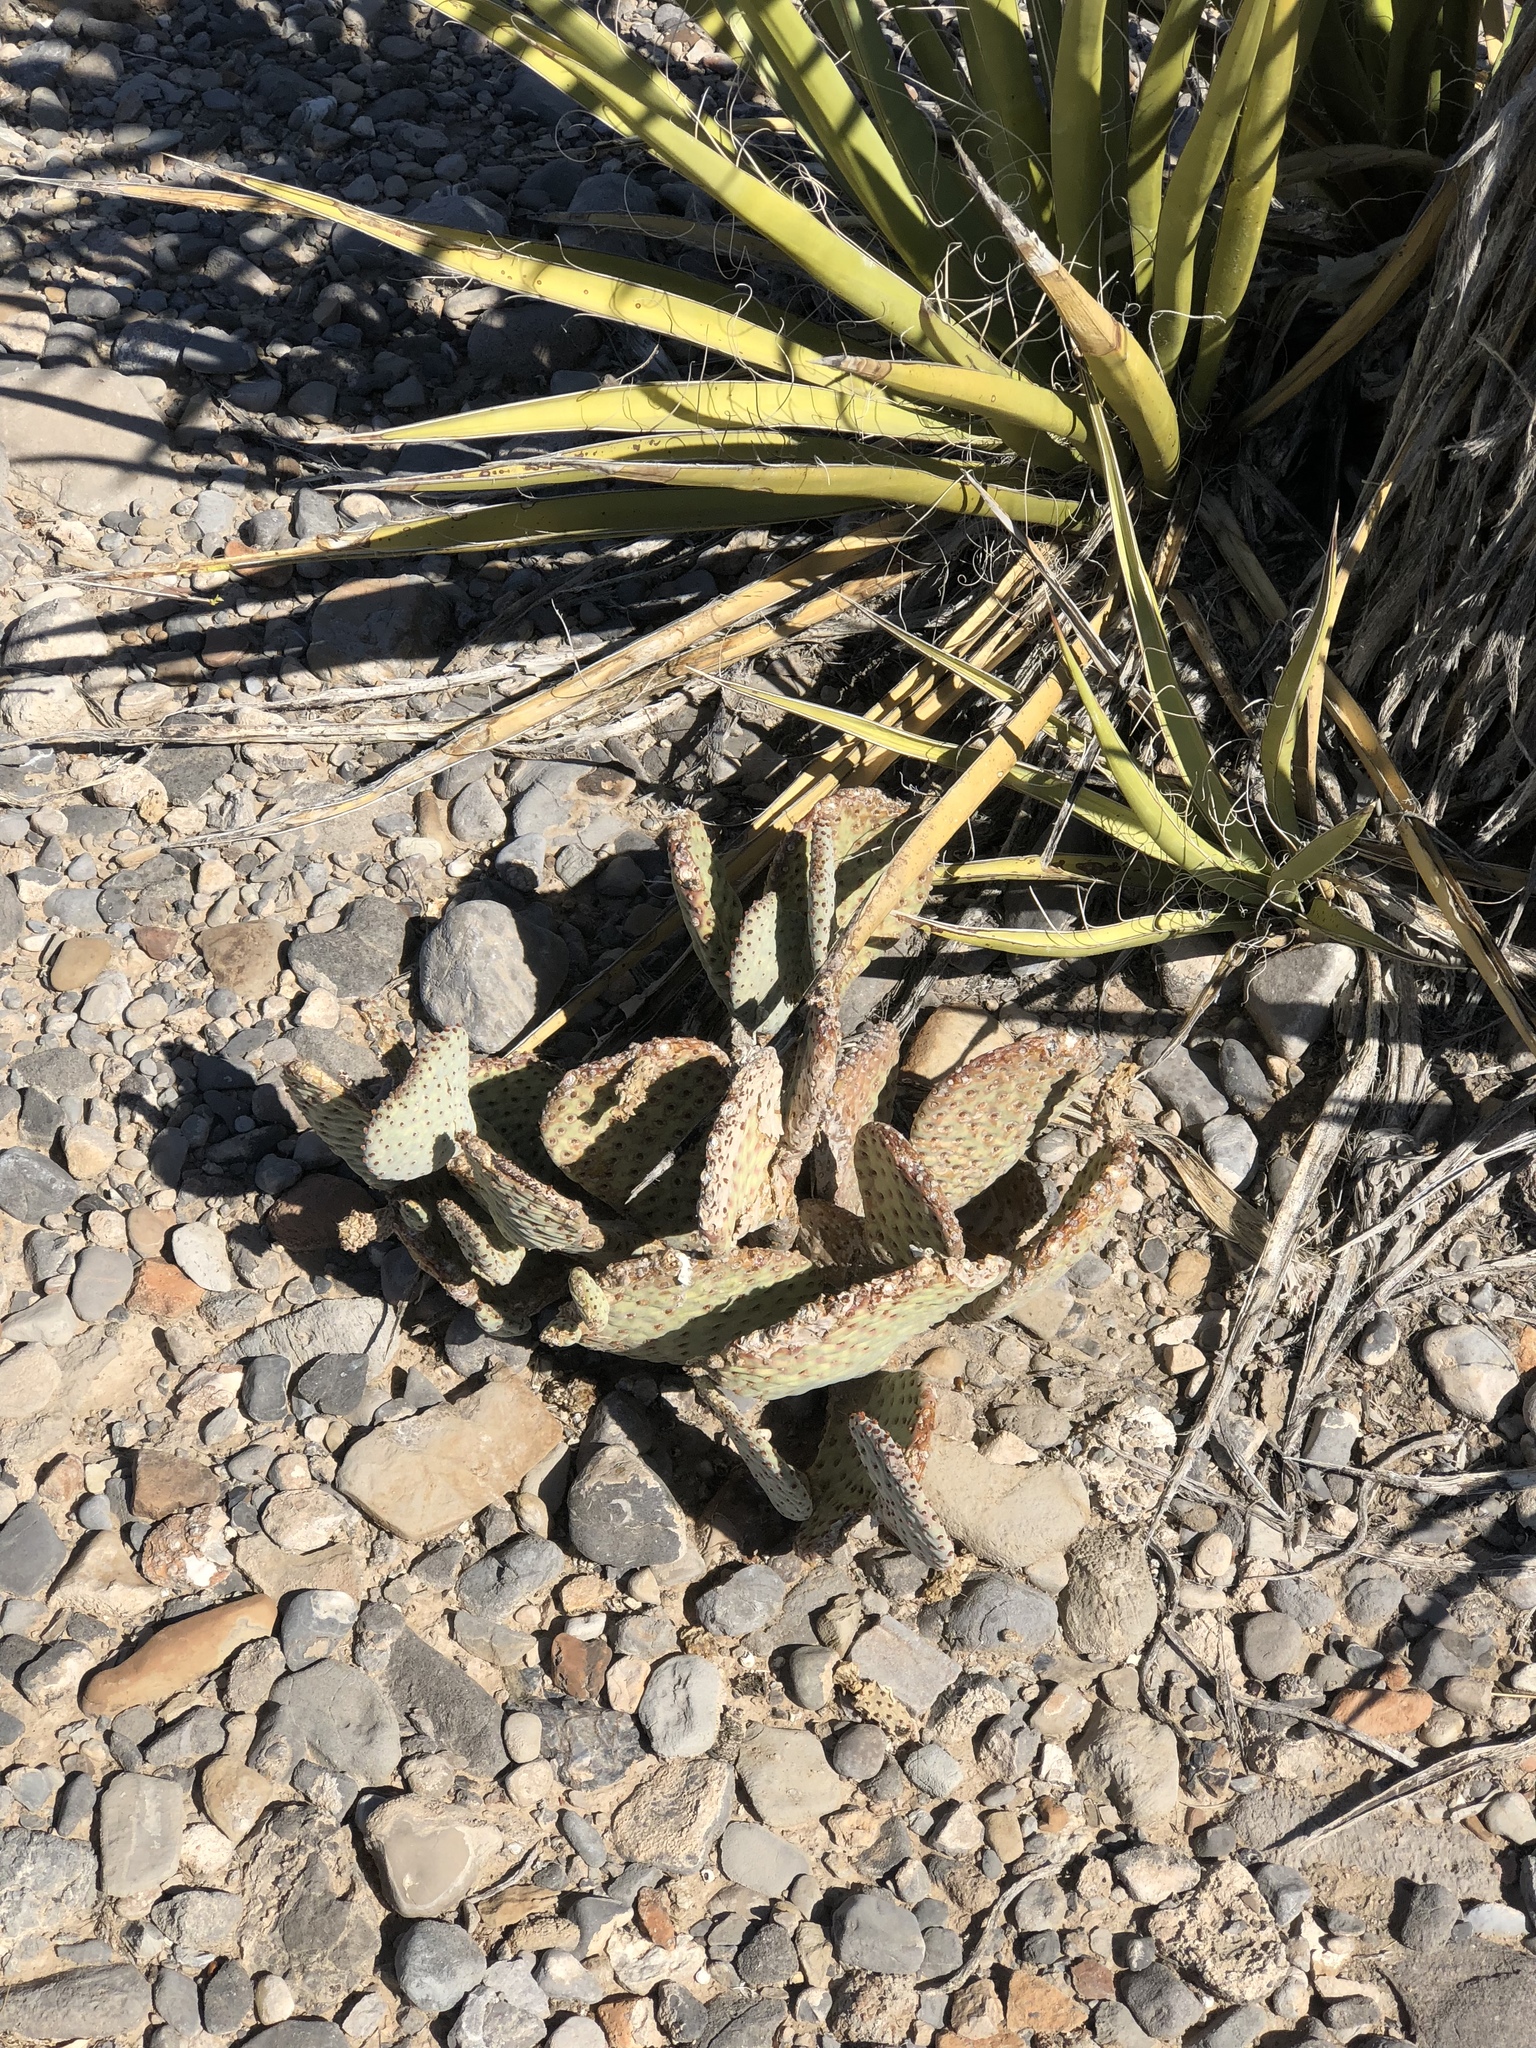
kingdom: Plantae
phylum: Tracheophyta
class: Magnoliopsida
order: Caryophyllales
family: Cactaceae
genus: Opuntia
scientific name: Opuntia basilaris
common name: Beavertail prickly-pear
